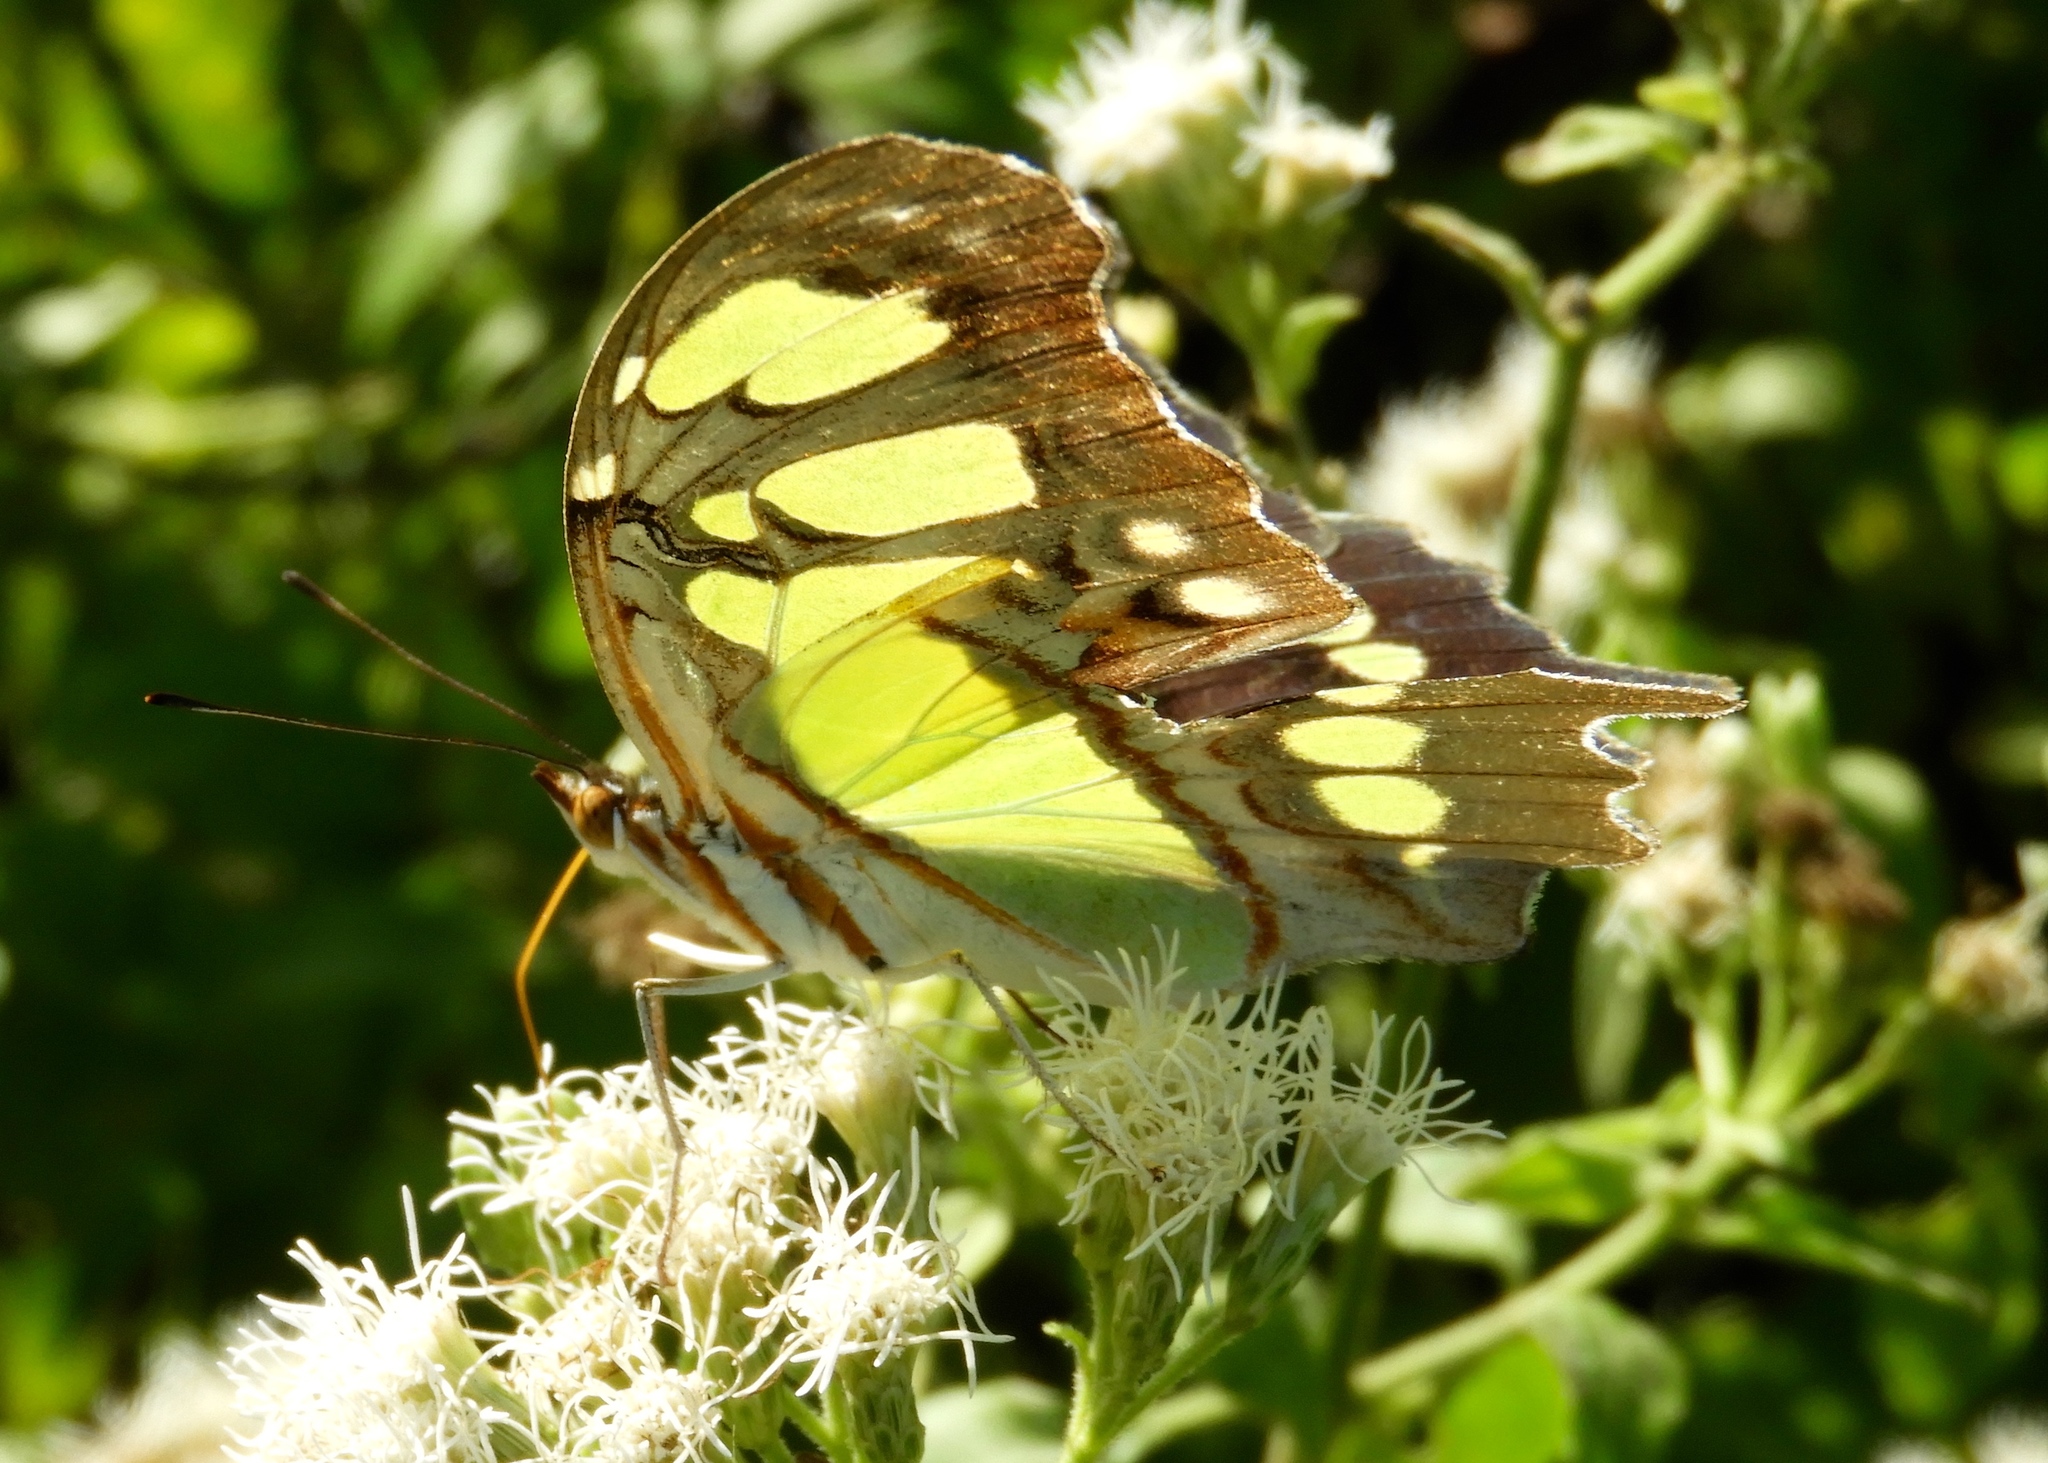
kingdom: Animalia
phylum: Arthropoda
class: Insecta
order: Lepidoptera
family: Nymphalidae
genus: Siproeta
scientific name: Siproeta stelenes
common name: Malachite
